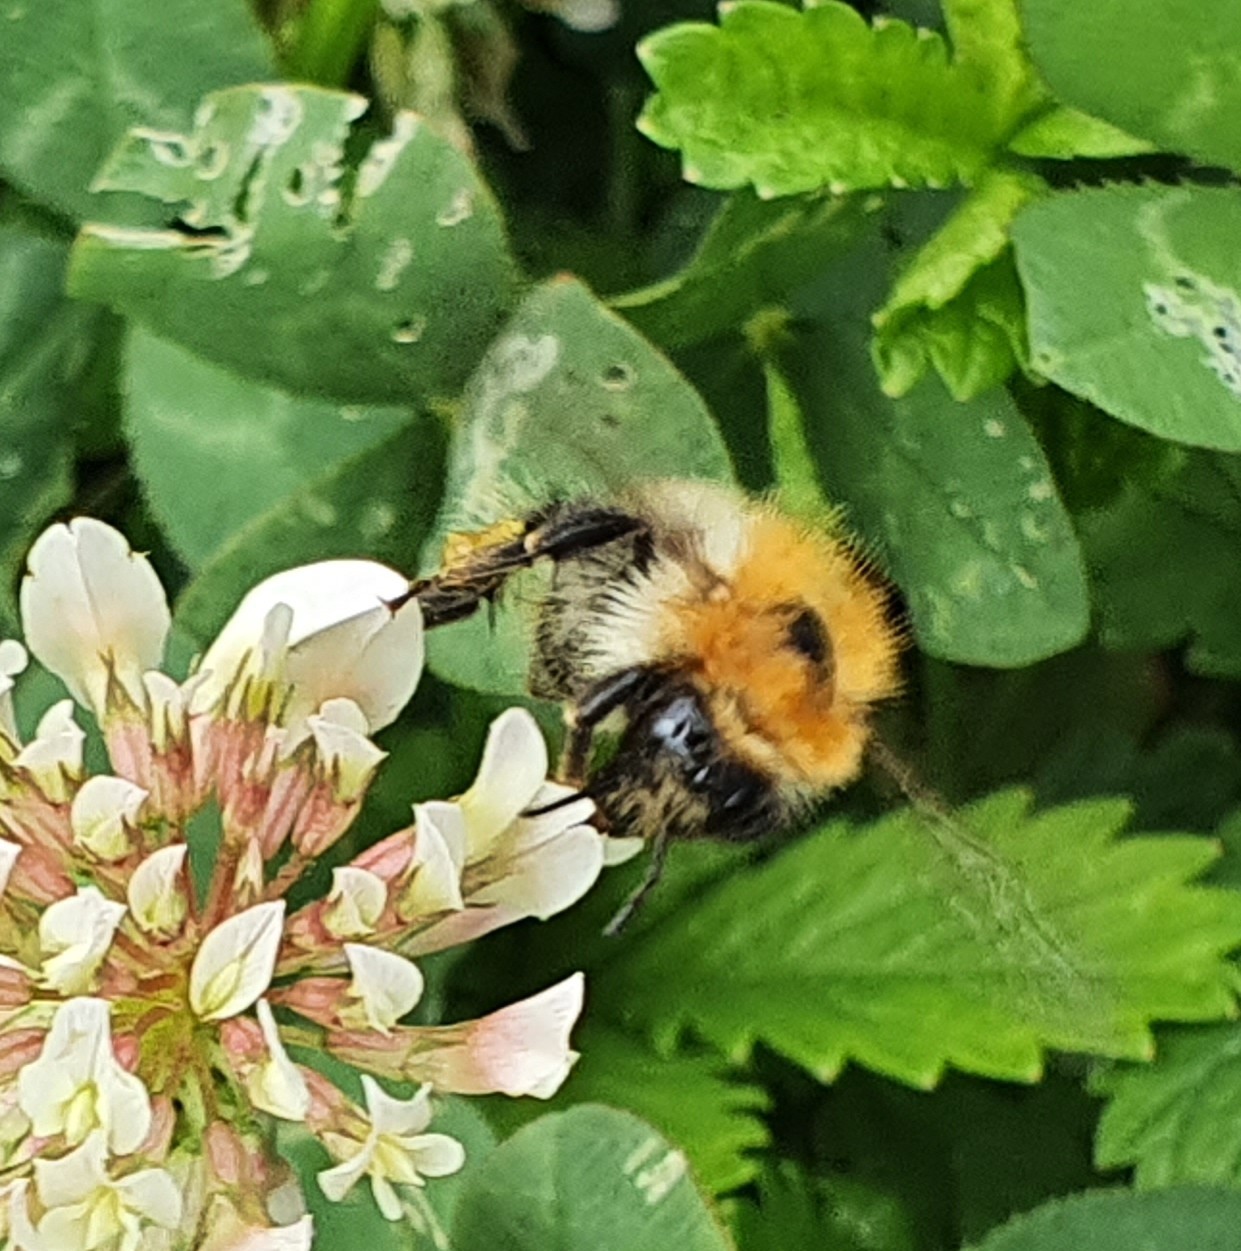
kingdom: Animalia
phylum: Arthropoda
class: Insecta
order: Hymenoptera
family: Apidae
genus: Bombus
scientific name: Bombus pascuorum
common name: Common carder bee
